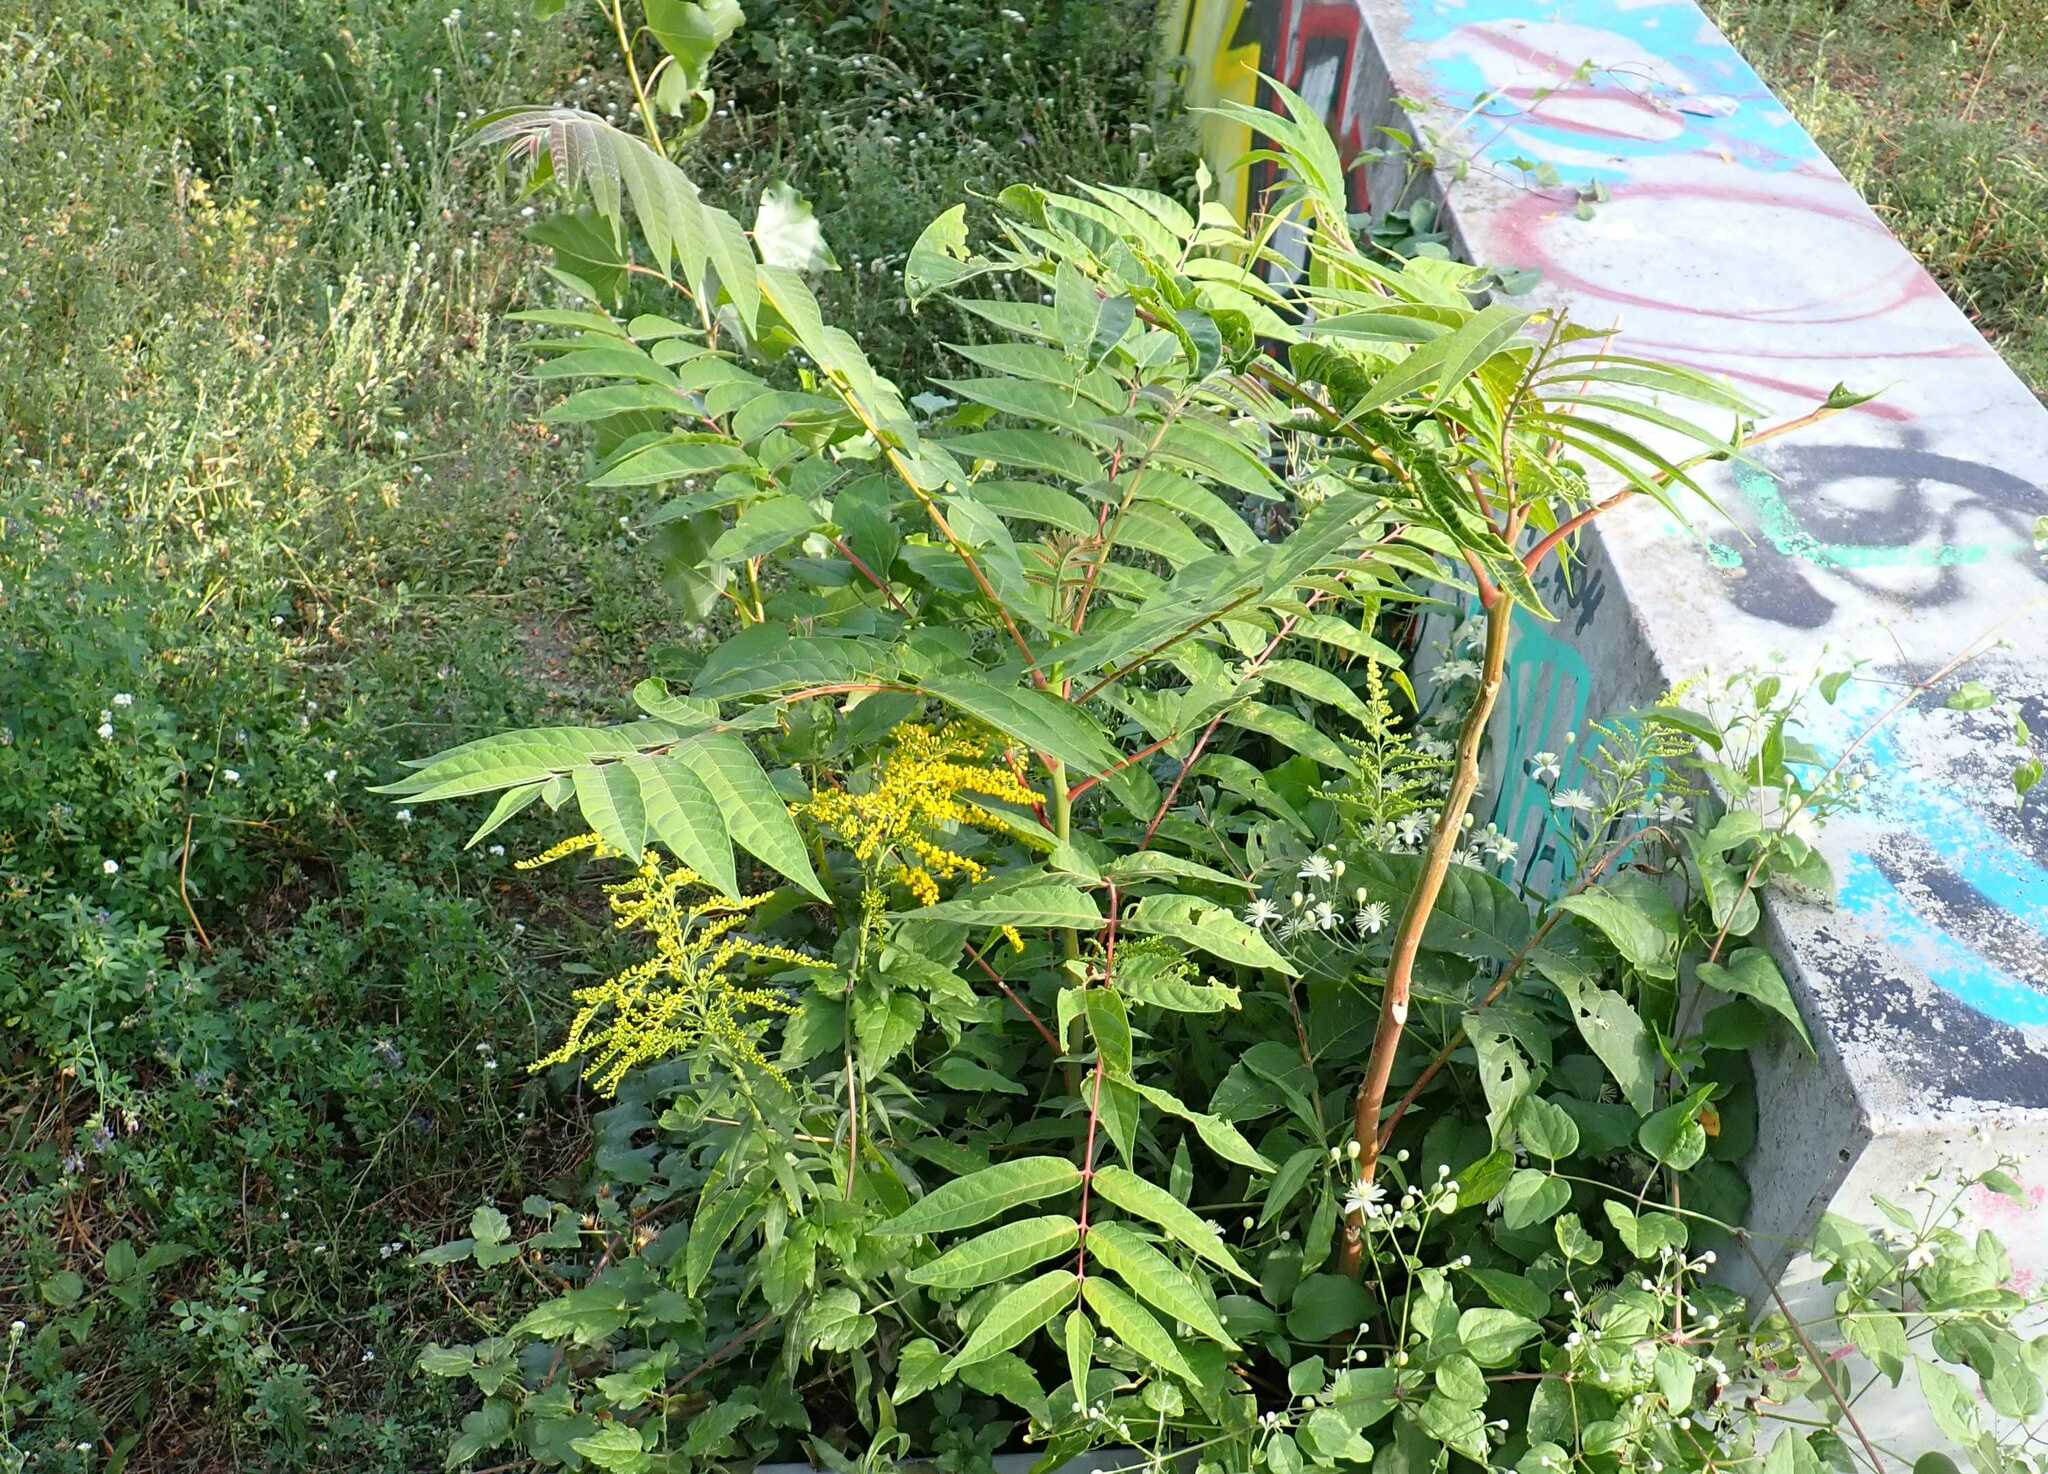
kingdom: Plantae
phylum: Tracheophyta
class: Magnoliopsida
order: Sapindales
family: Simaroubaceae
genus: Ailanthus
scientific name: Ailanthus altissima
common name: Tree-of-heaven
